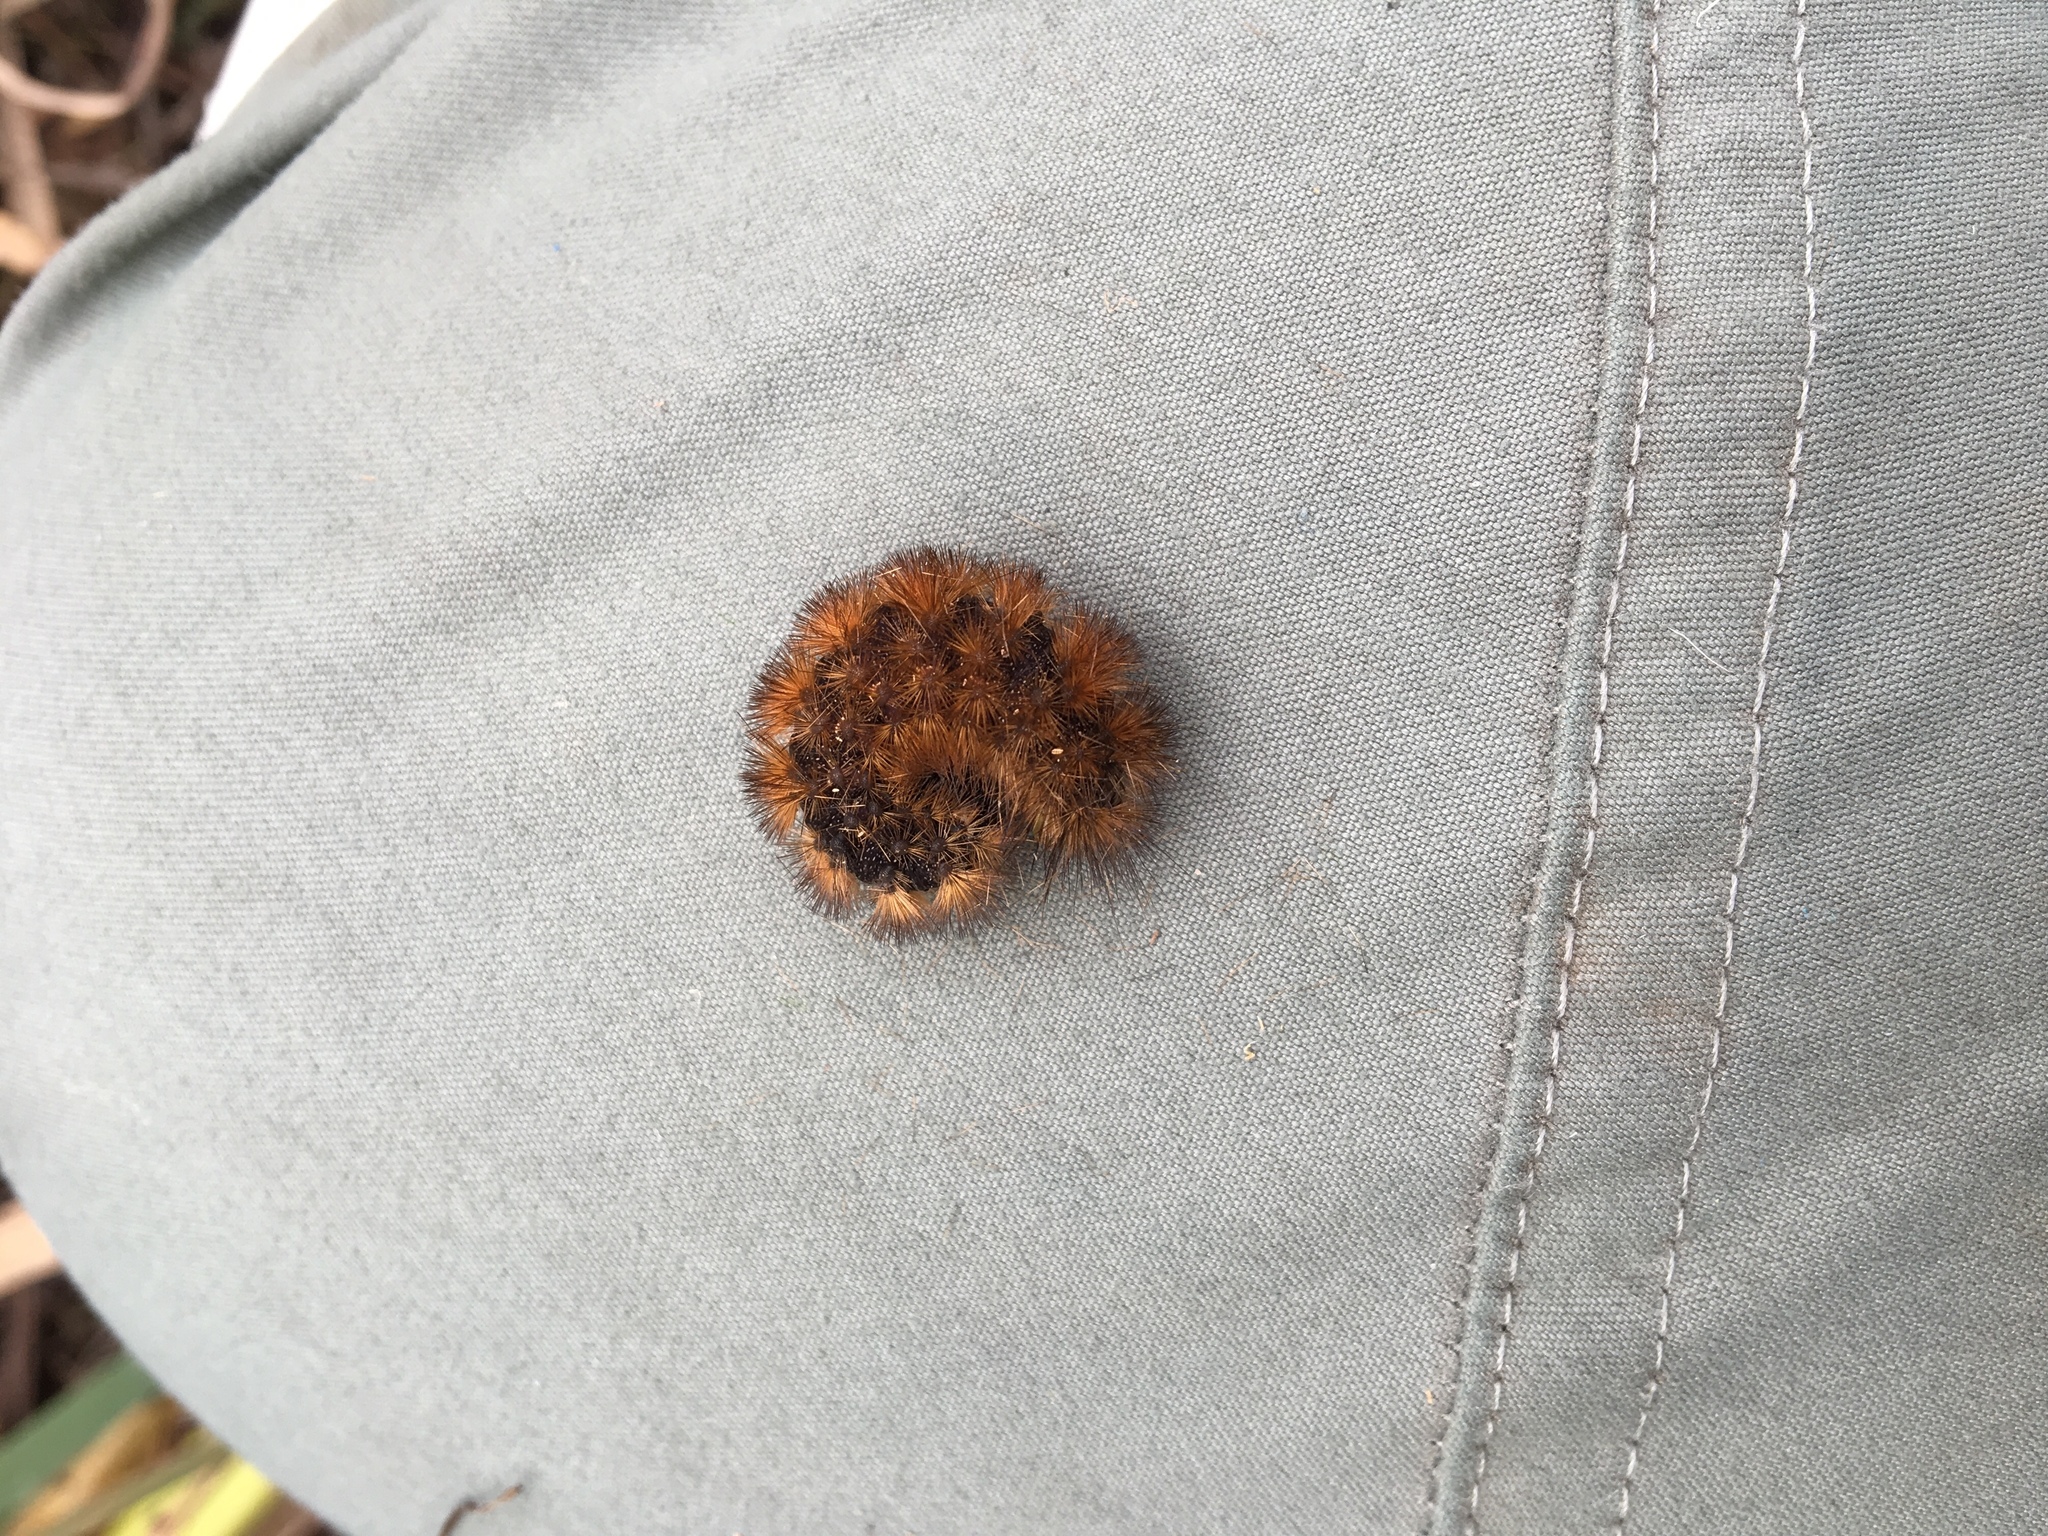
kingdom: Animalia
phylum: Arthropoda
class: Insecta
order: Lepidoptera
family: Erebidae
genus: Pyrrharctia
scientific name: Pyrrharctia isabella
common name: Isabella tiger moth
